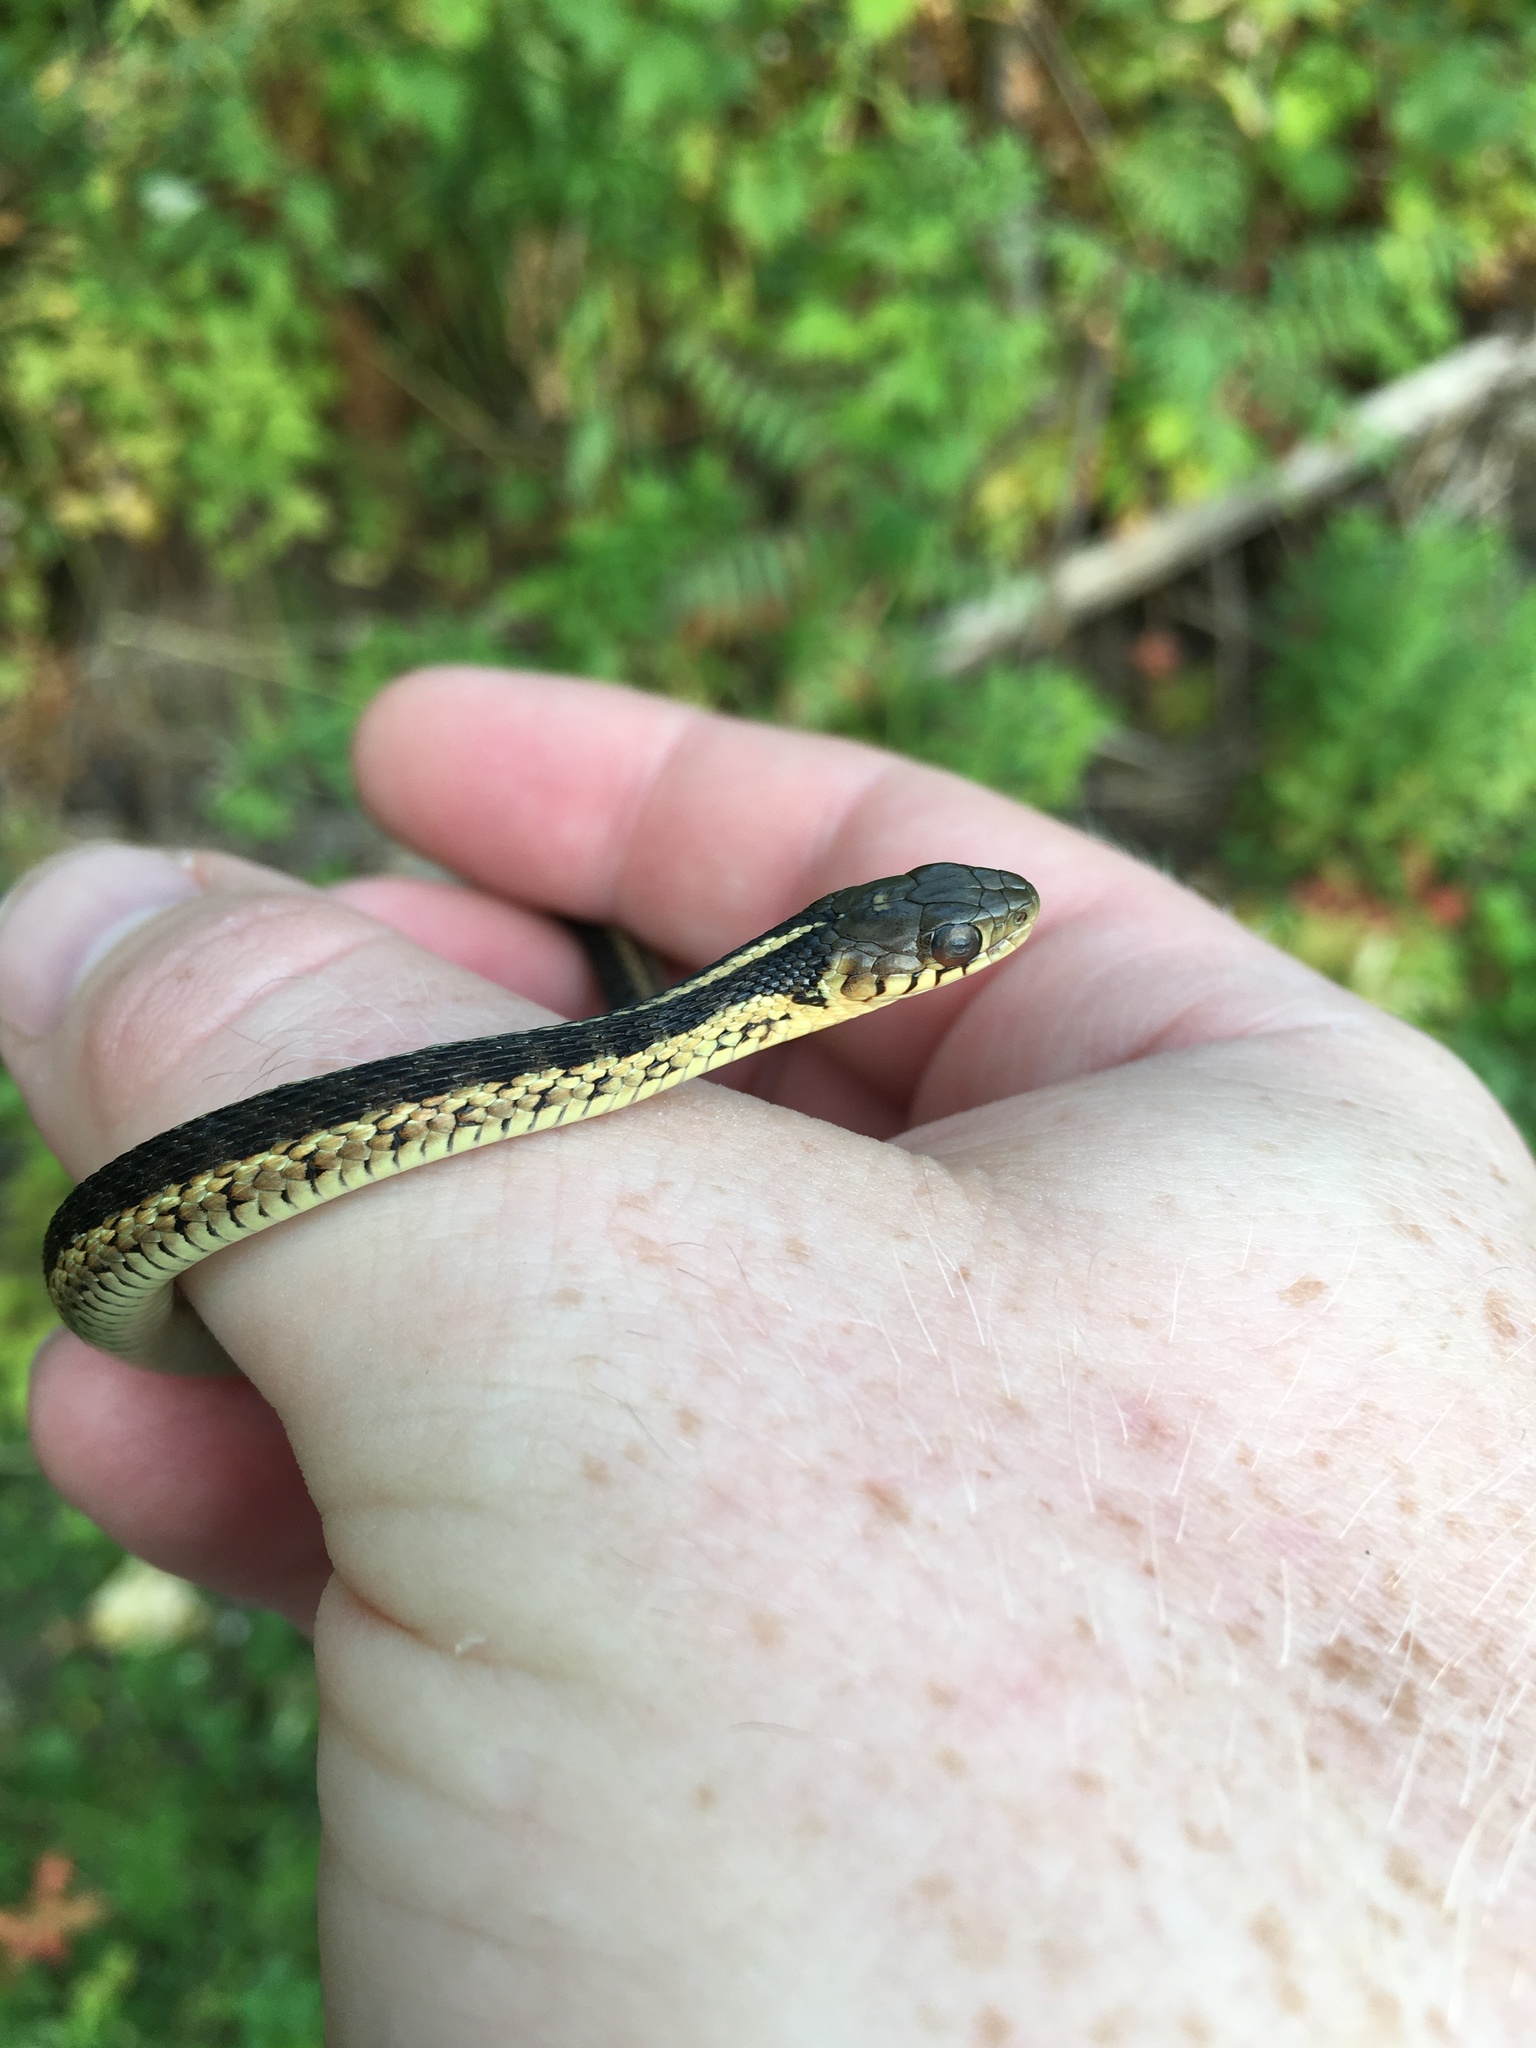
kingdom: Animalia
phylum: Chordata
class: Squamata
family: Colubridae
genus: Thamnophis
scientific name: Thamnophis sirtalis
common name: Common garter snake
